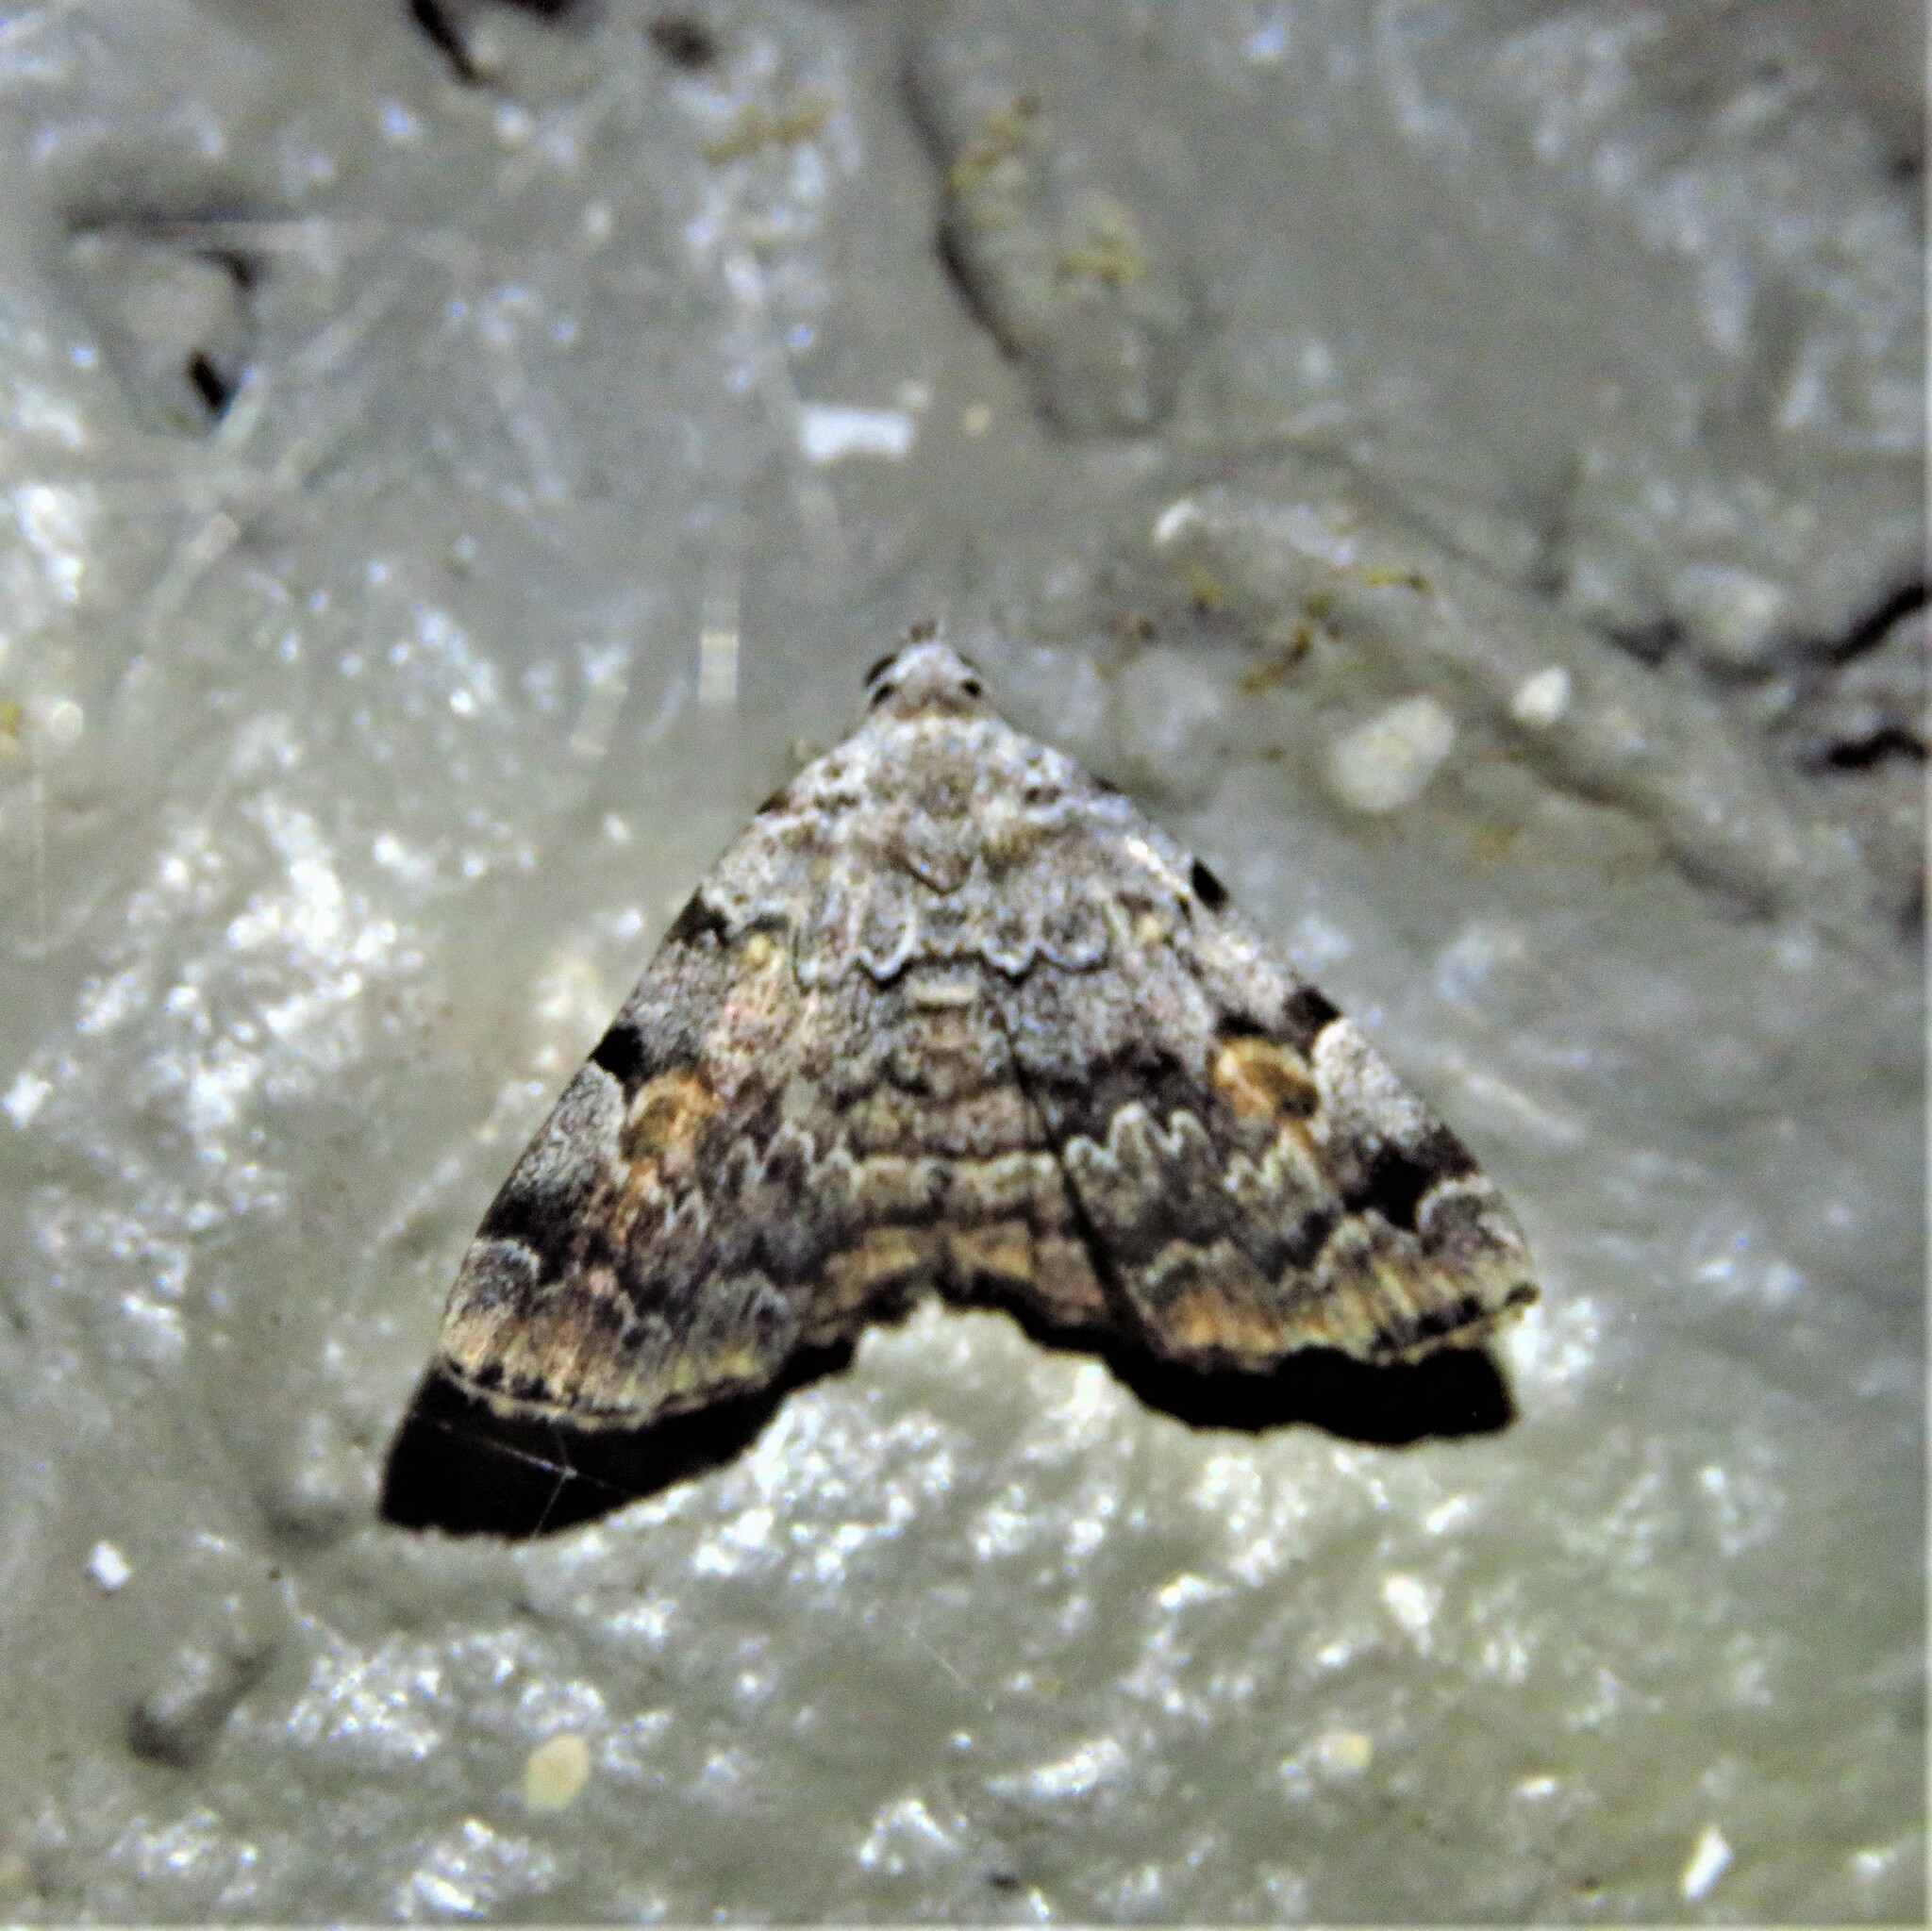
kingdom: Animalia
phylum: Arthropoda
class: Insecta
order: Lepidoptera
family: Erebidae
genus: Idia
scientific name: Idia americalis
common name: American idia moth
